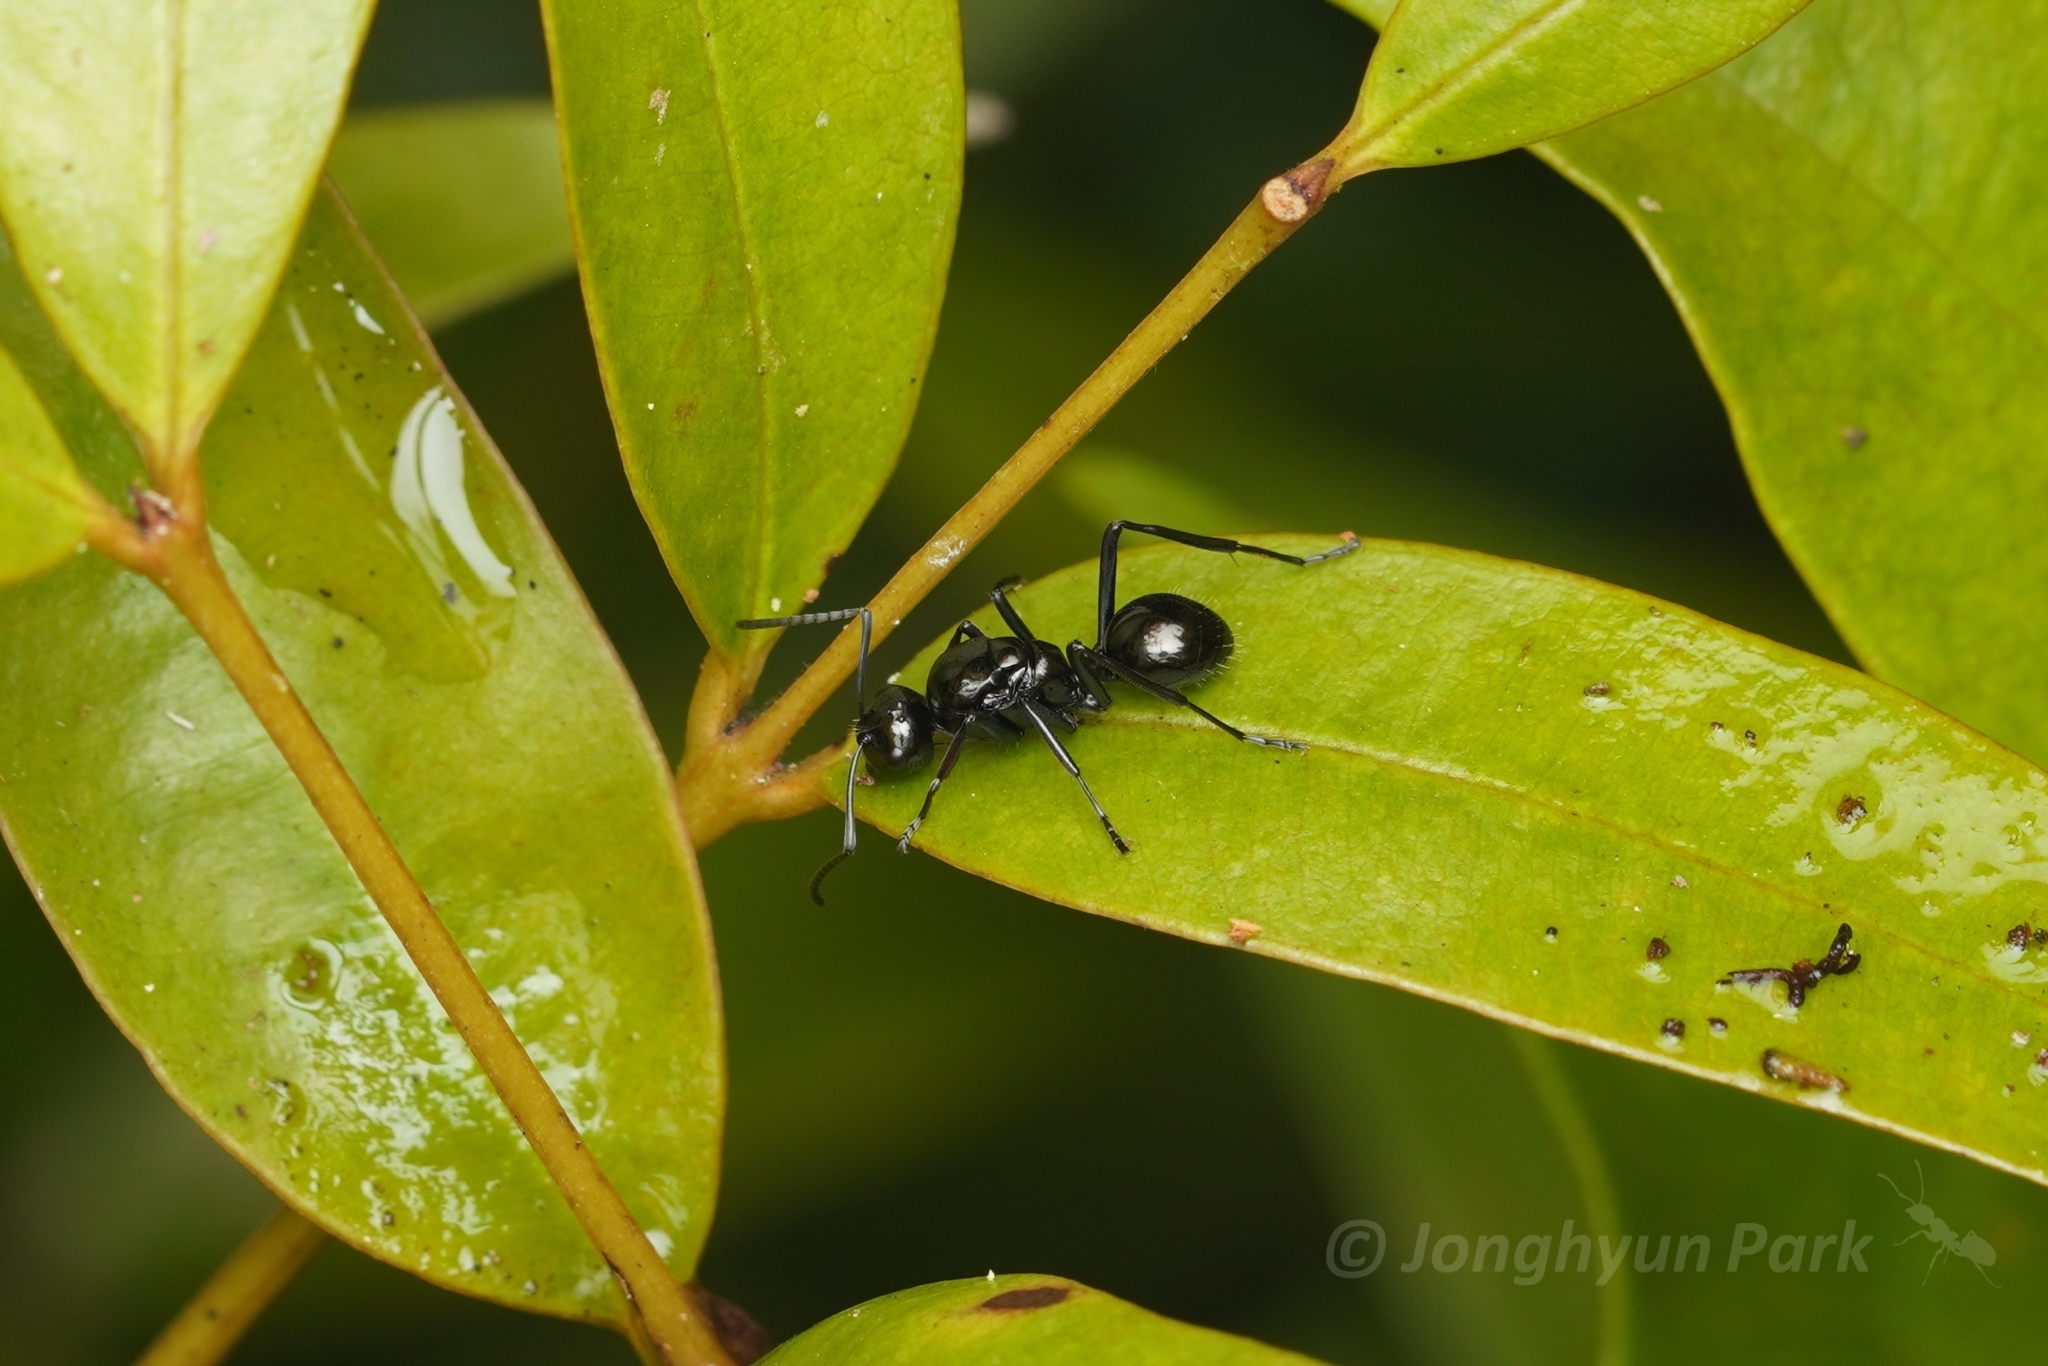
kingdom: Animalia
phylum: Arthropoda
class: Insecta
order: Hymenoptera
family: Formicidae
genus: Polyrhachis
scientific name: Polyrhachis lepida
